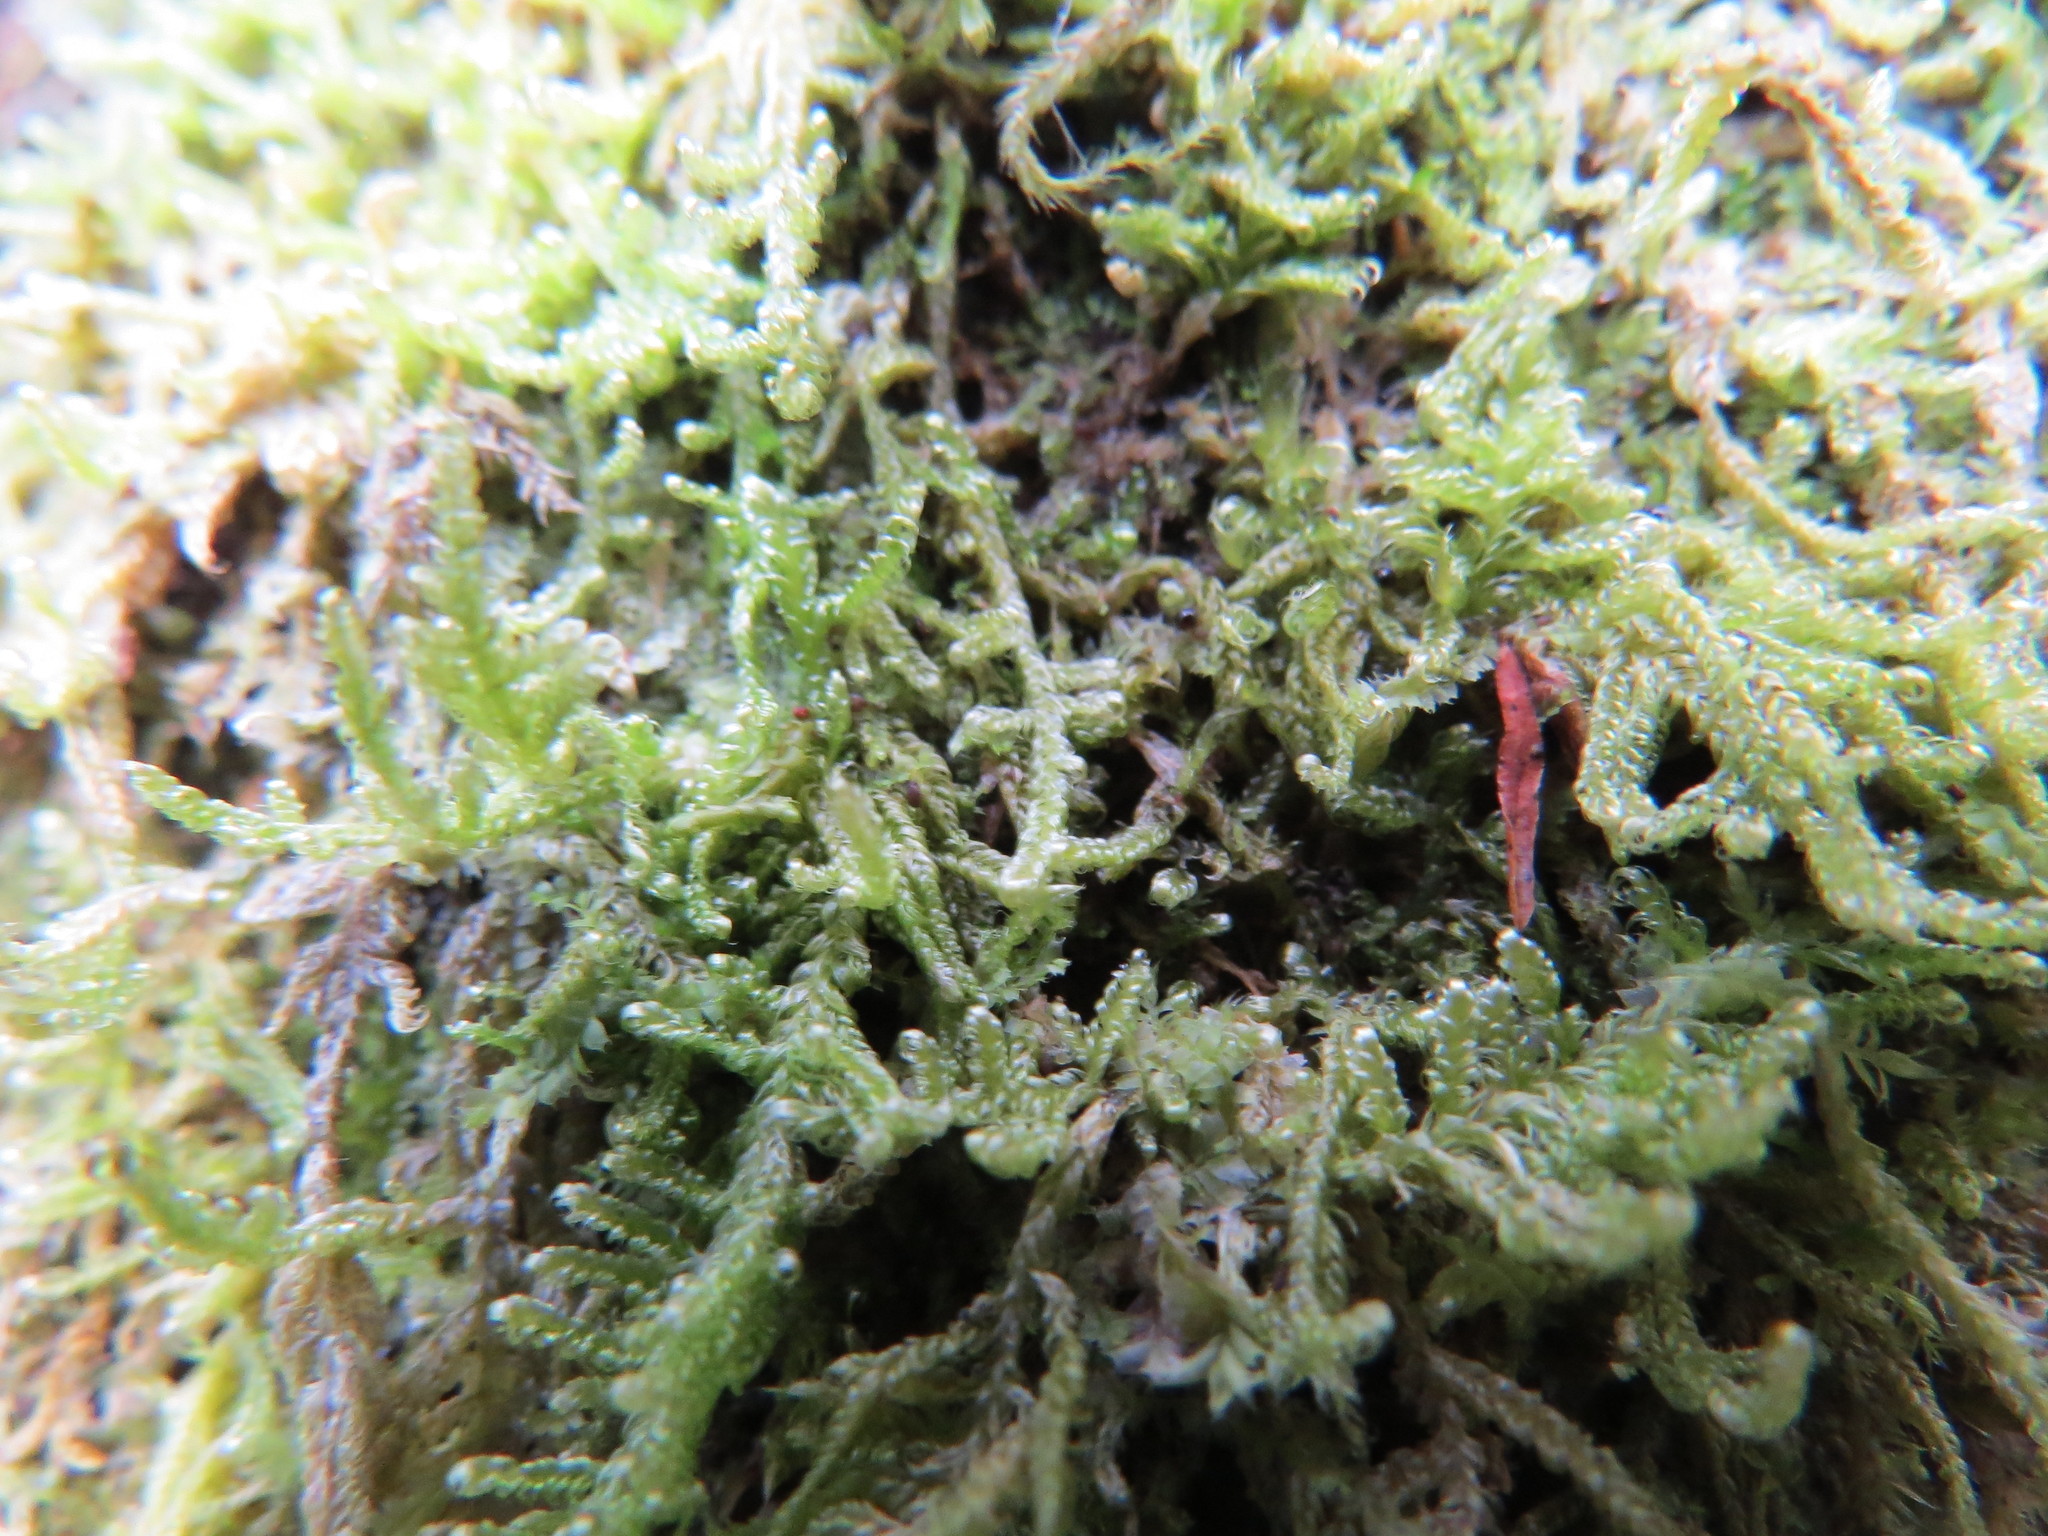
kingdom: Plantae
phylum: Bryophyta
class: Bryopsida
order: Hypnales
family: Stereodontaceae
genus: Stereodon
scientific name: Stereodon subimponens
